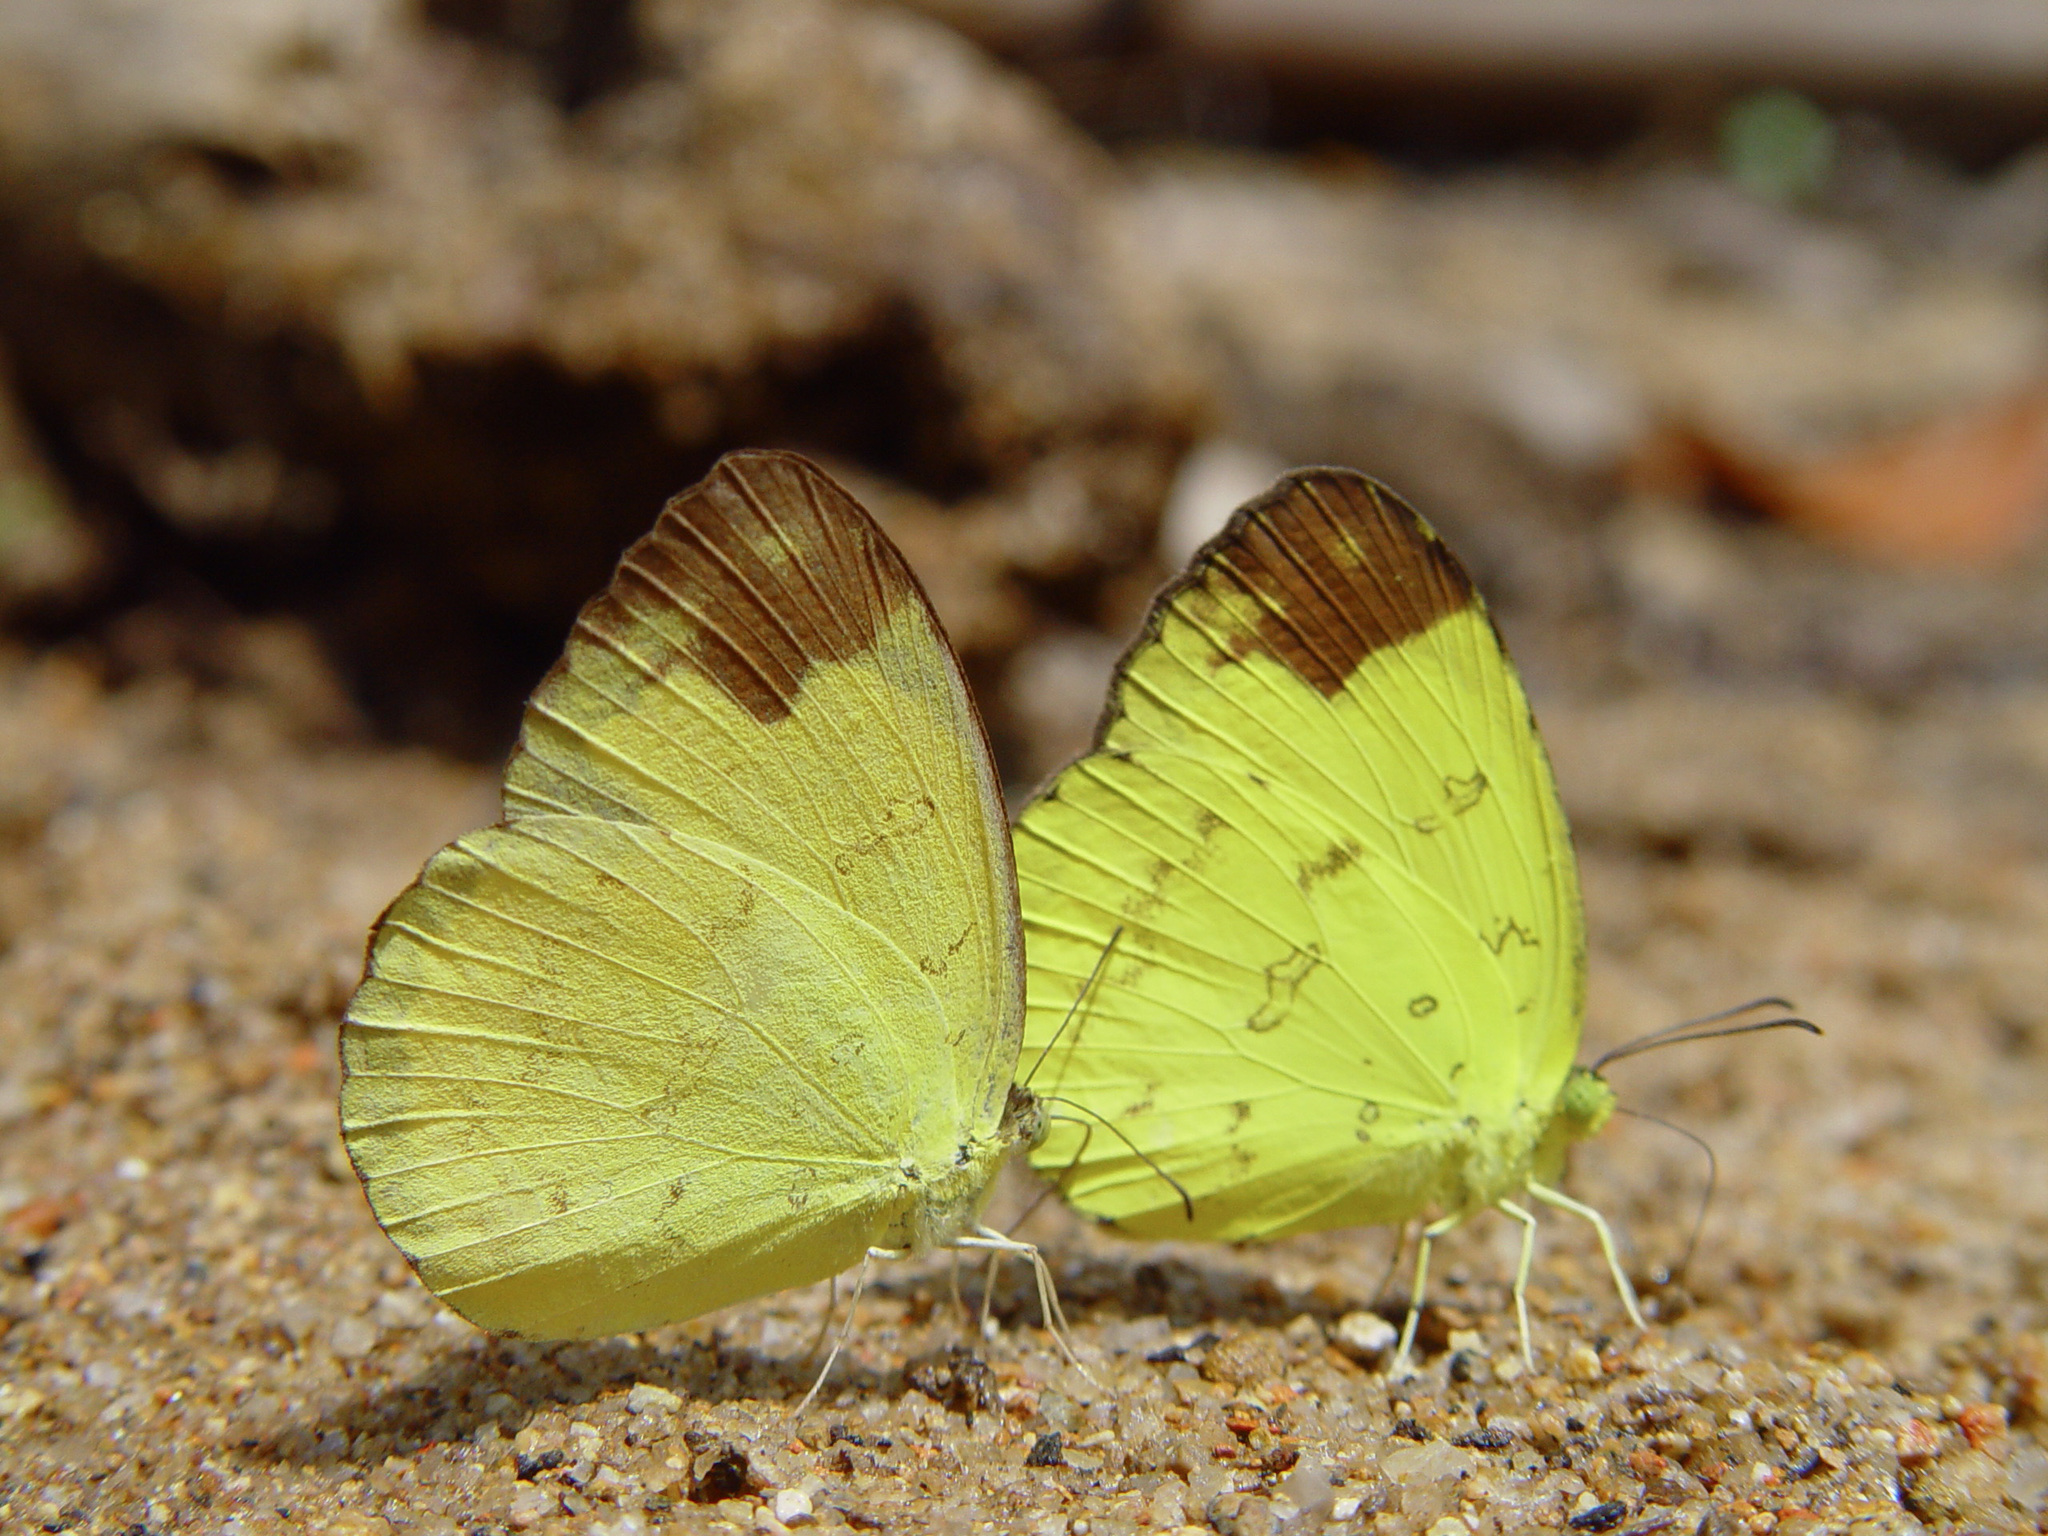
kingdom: Animalia
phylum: Arthropoda
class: Insecta
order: Lepidoptera
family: Pieridae
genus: Eurema
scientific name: Eurema sari
